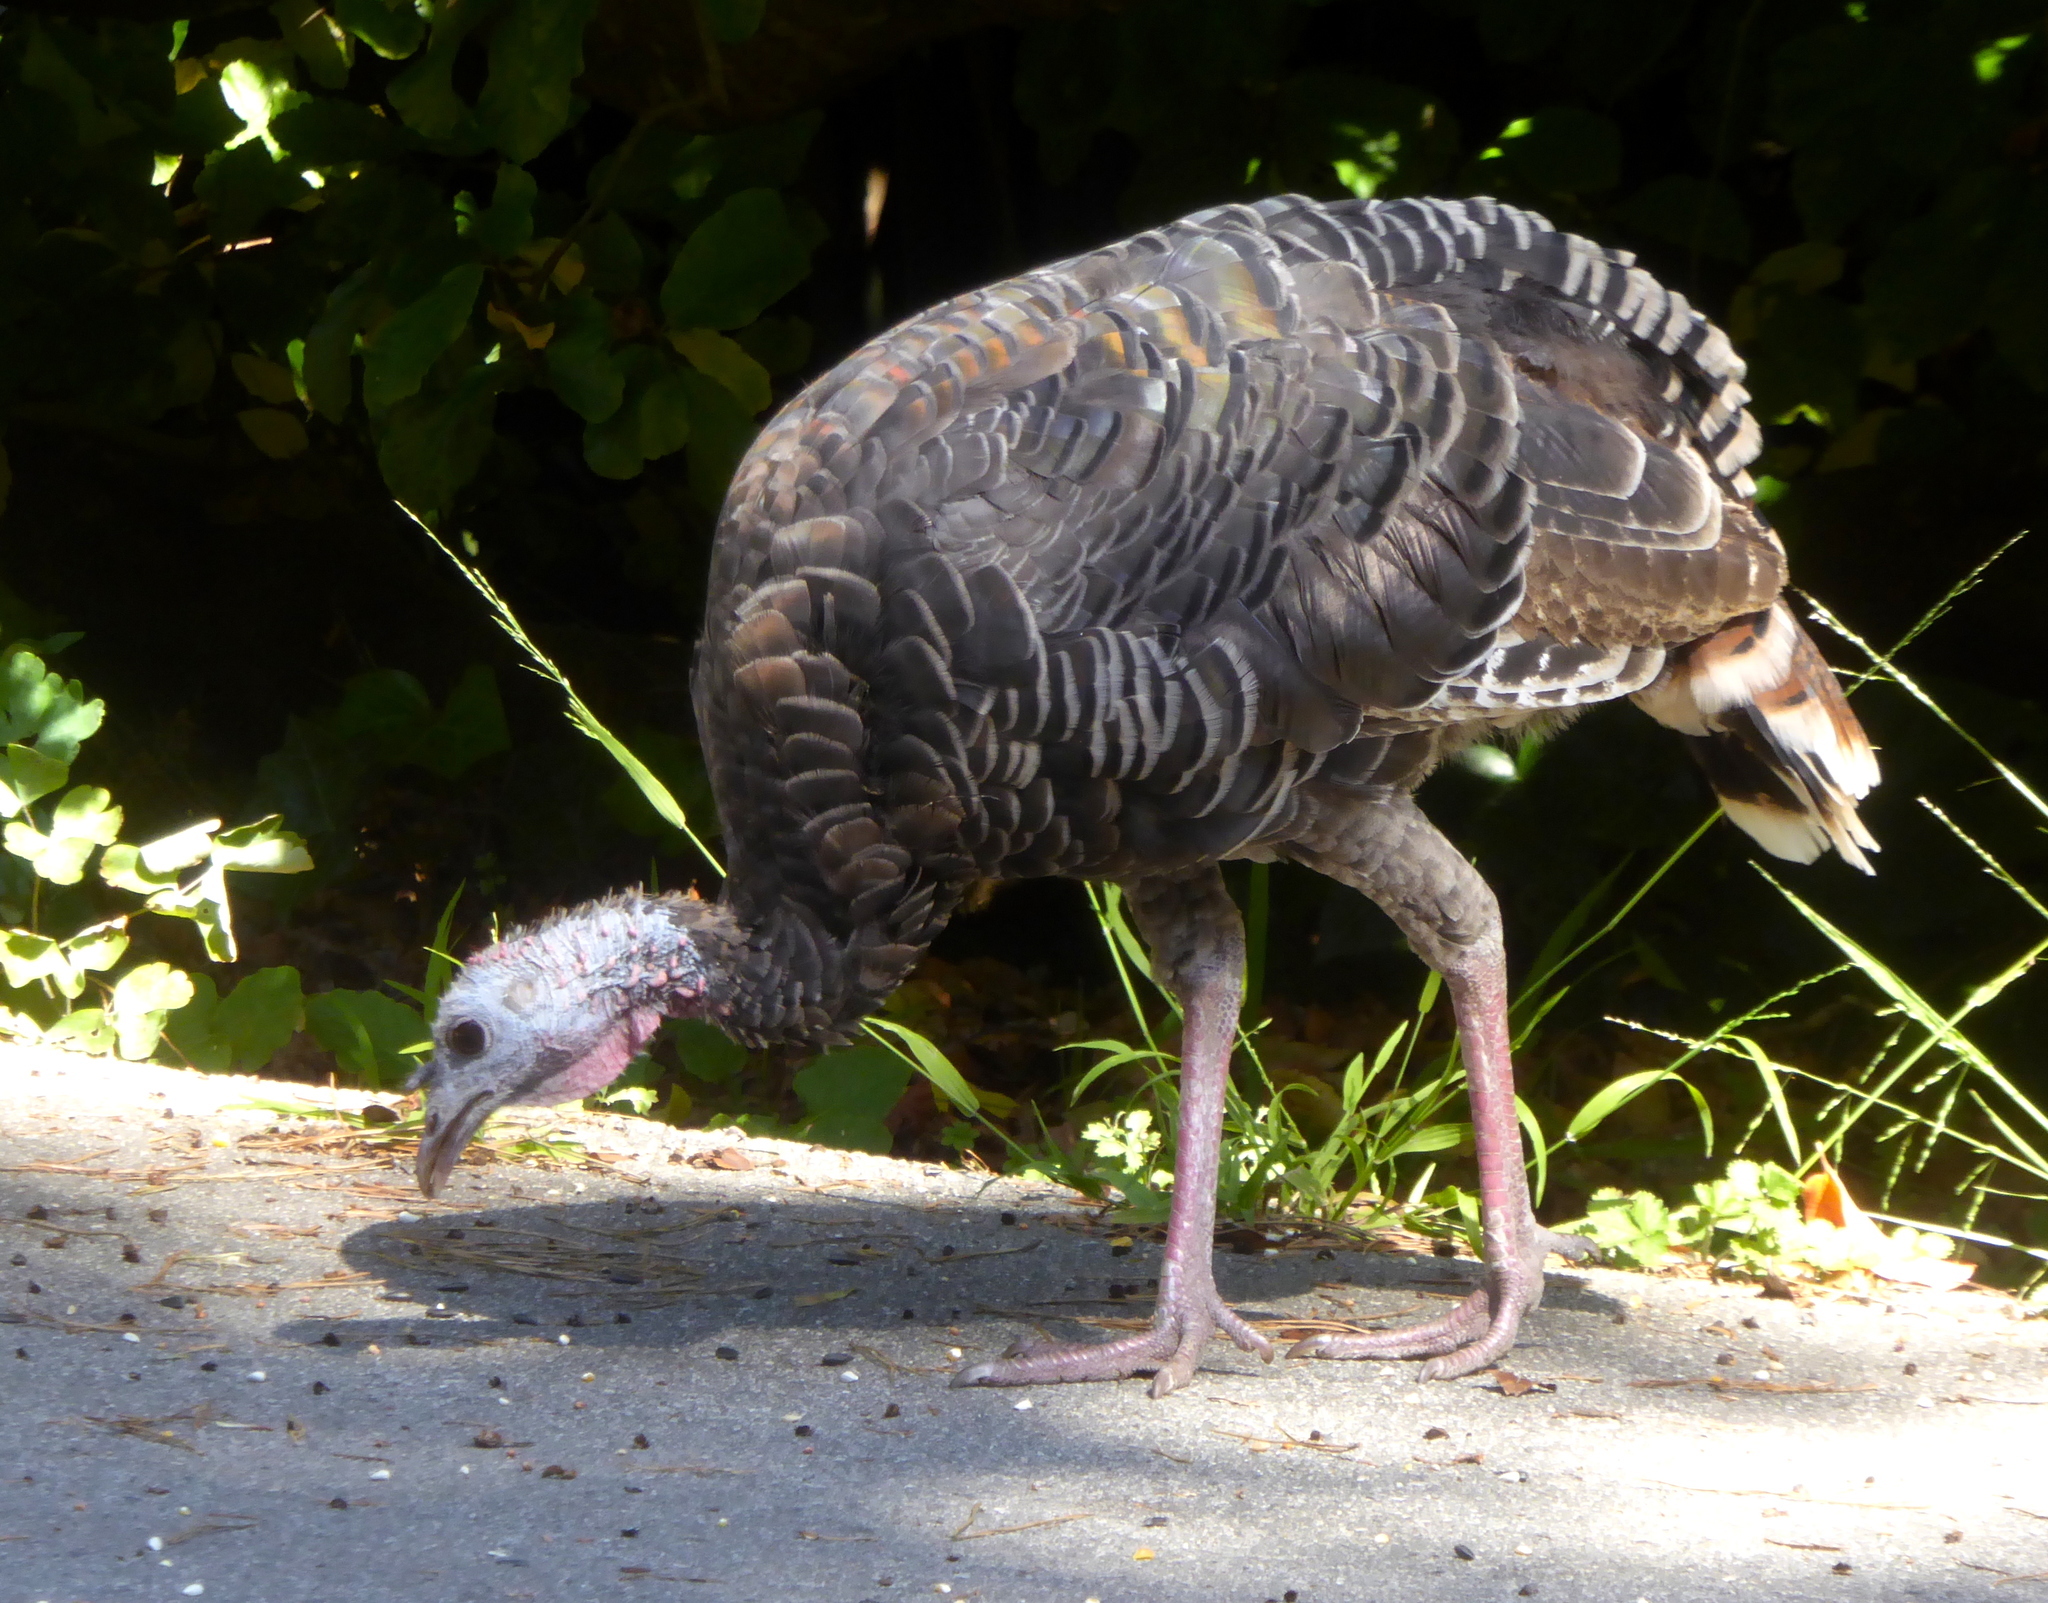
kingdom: Animalia
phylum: Chordata
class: Aves
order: Galliformes
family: Phasianidae
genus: Meleagris
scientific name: Meleagris gallopavo
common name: Wild turkey
